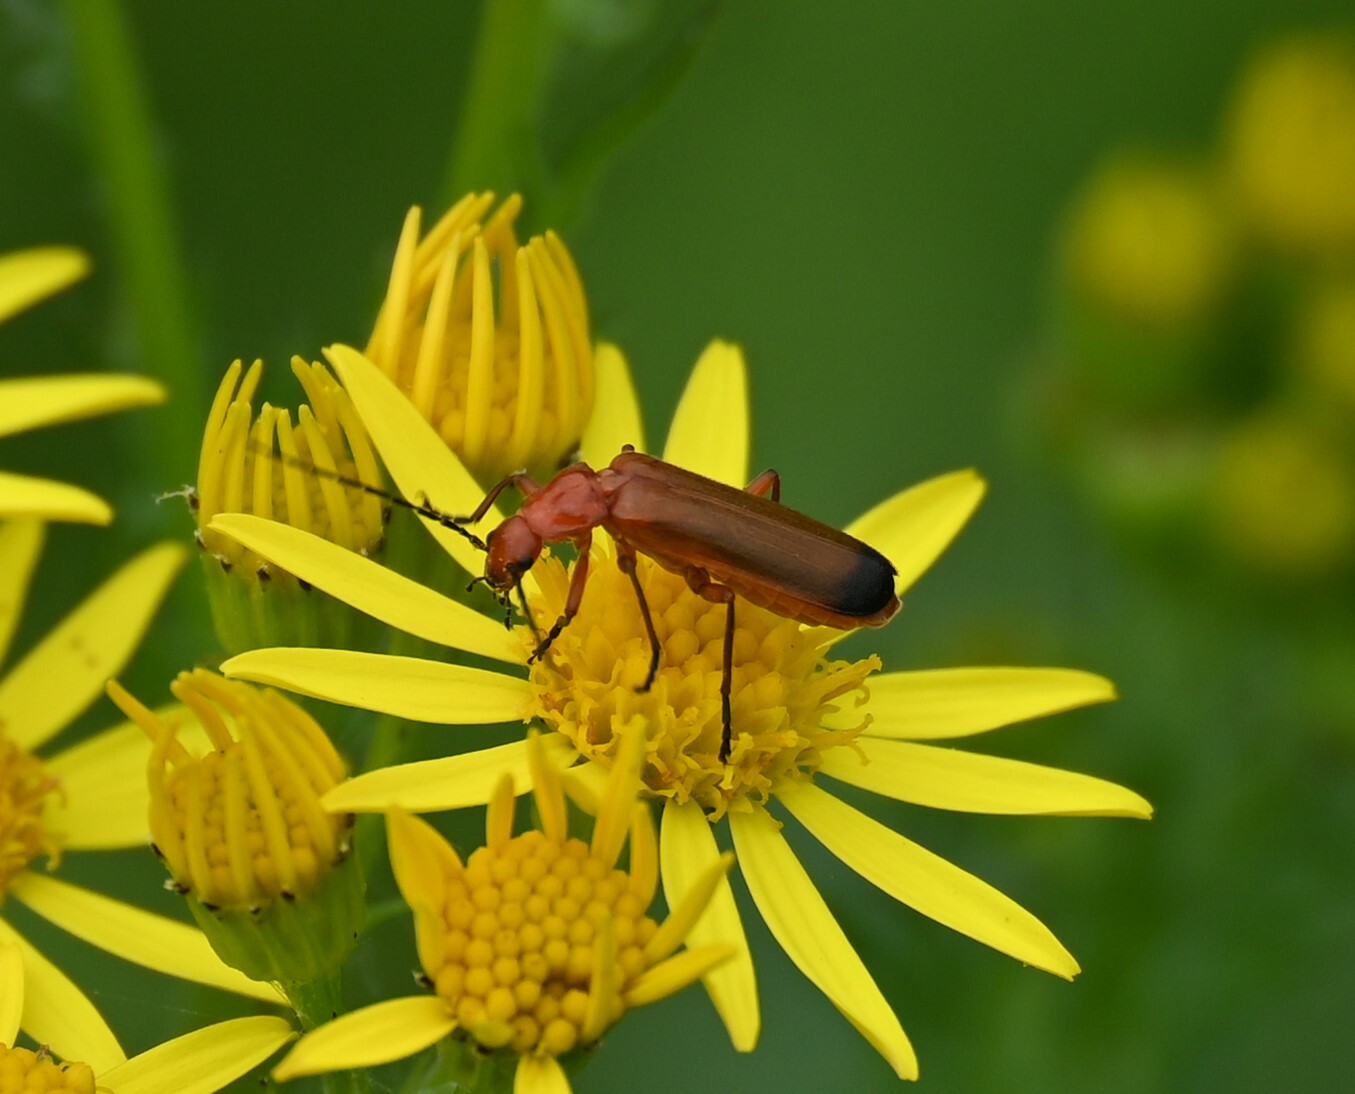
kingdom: Animalia
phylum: Arthropoda
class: Insecta
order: Coleoptera
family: Cantharidae
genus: Rhagonycha
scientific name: Rhagonycha fulva
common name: Common red soldier beetle
